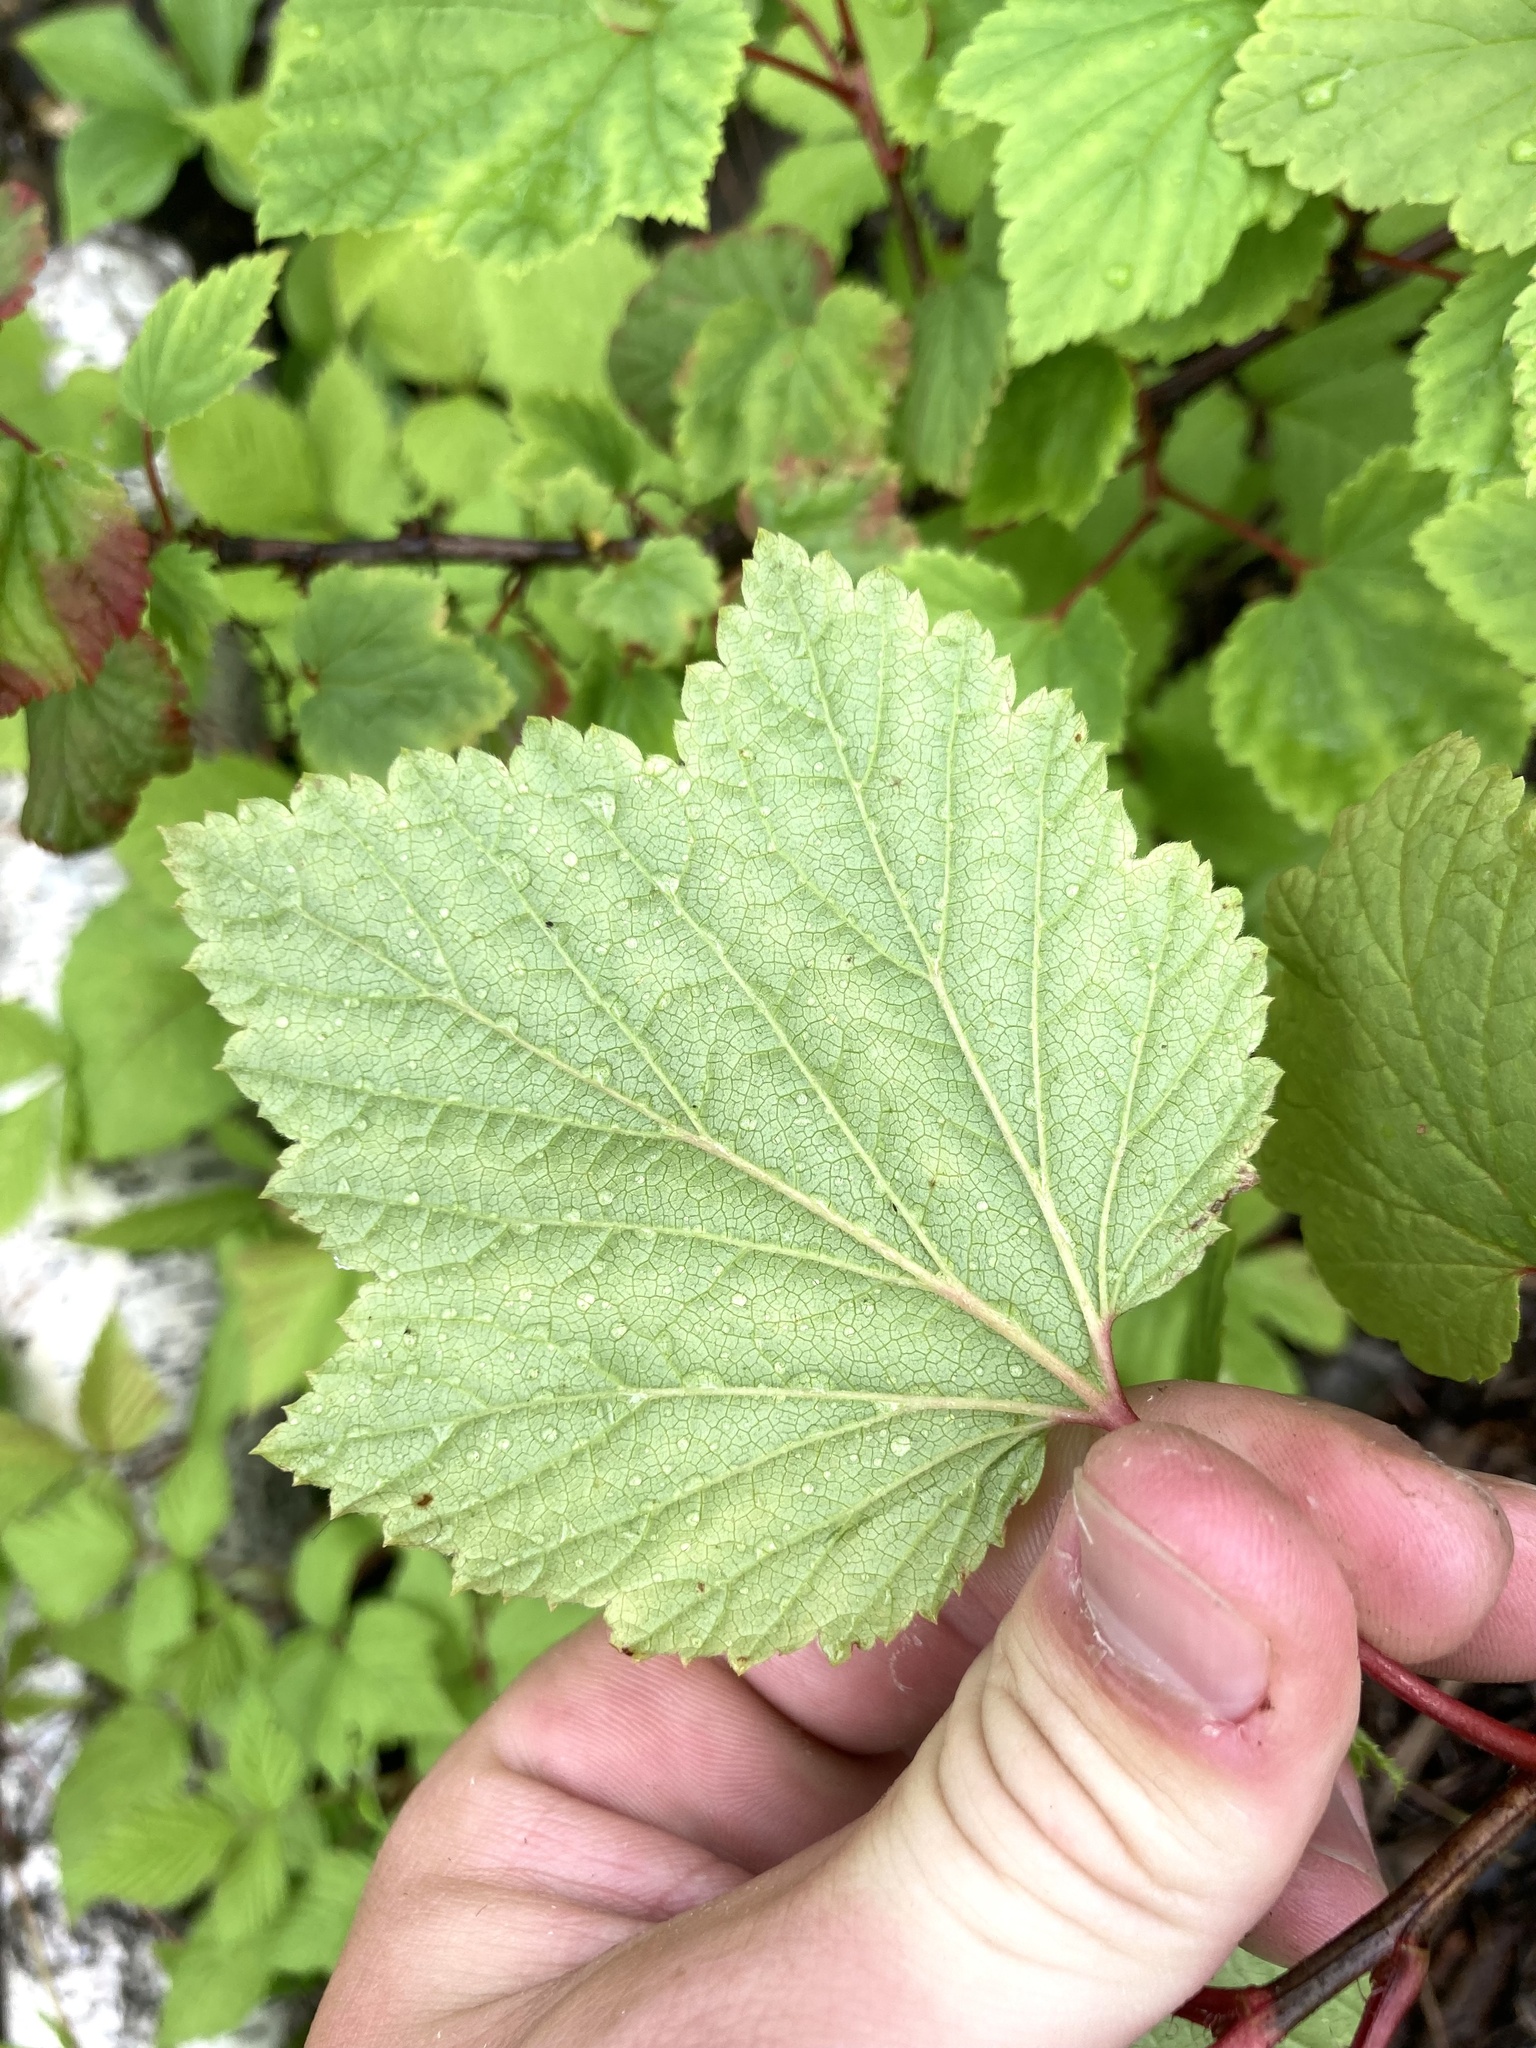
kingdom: Plantae
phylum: Tracheophyta
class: Magnoliopsida
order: Saxifragales
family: Grossulariaceae
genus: Ribes
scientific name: Ribes triste
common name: Swamp red currant
